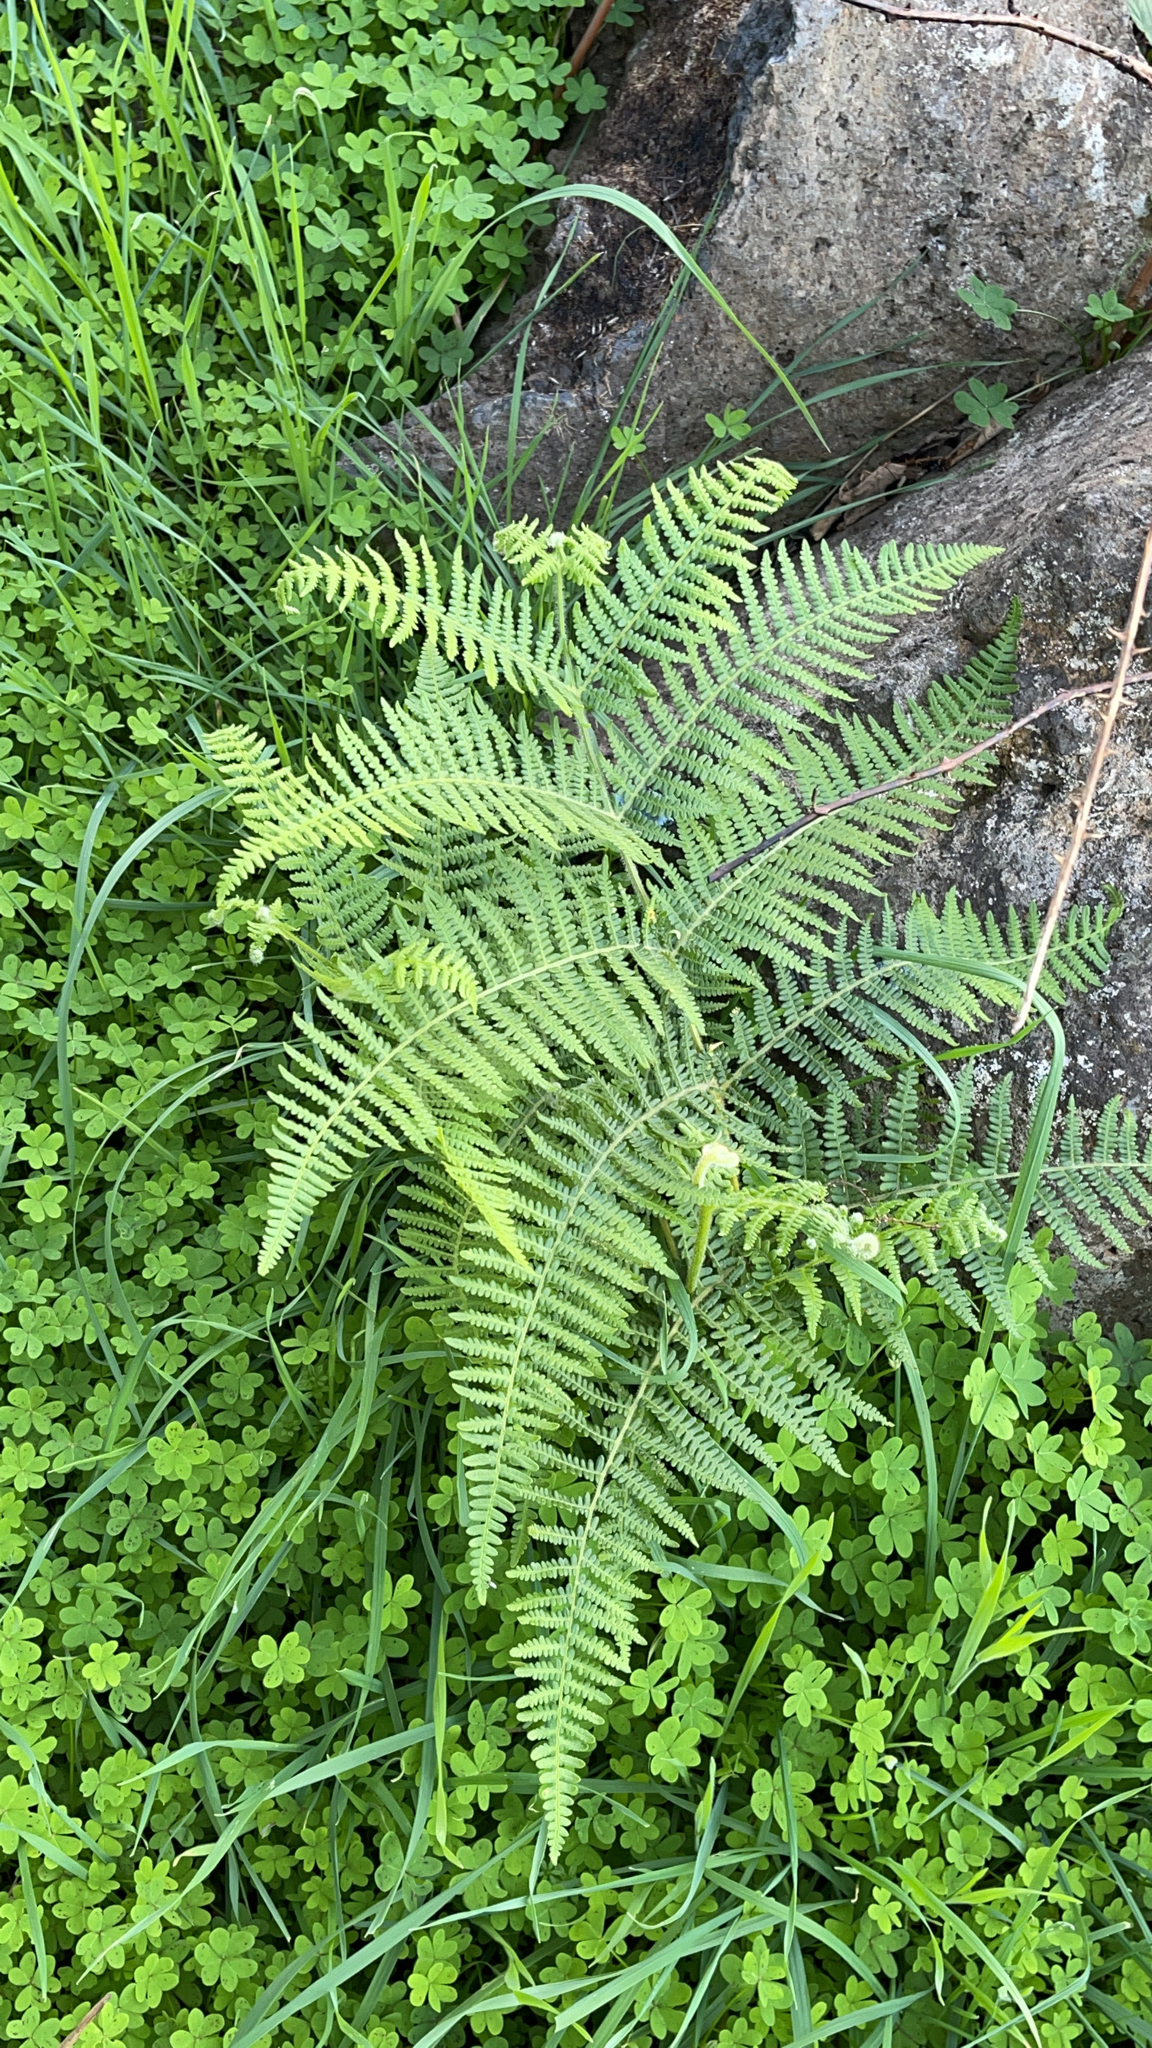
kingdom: Plantae
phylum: Tracheophyta
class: Polypodiopsida
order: Polypodiales
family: Dennstaedtiaceae
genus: Pteridium
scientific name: Pteridium aquilinum
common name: Bracken
